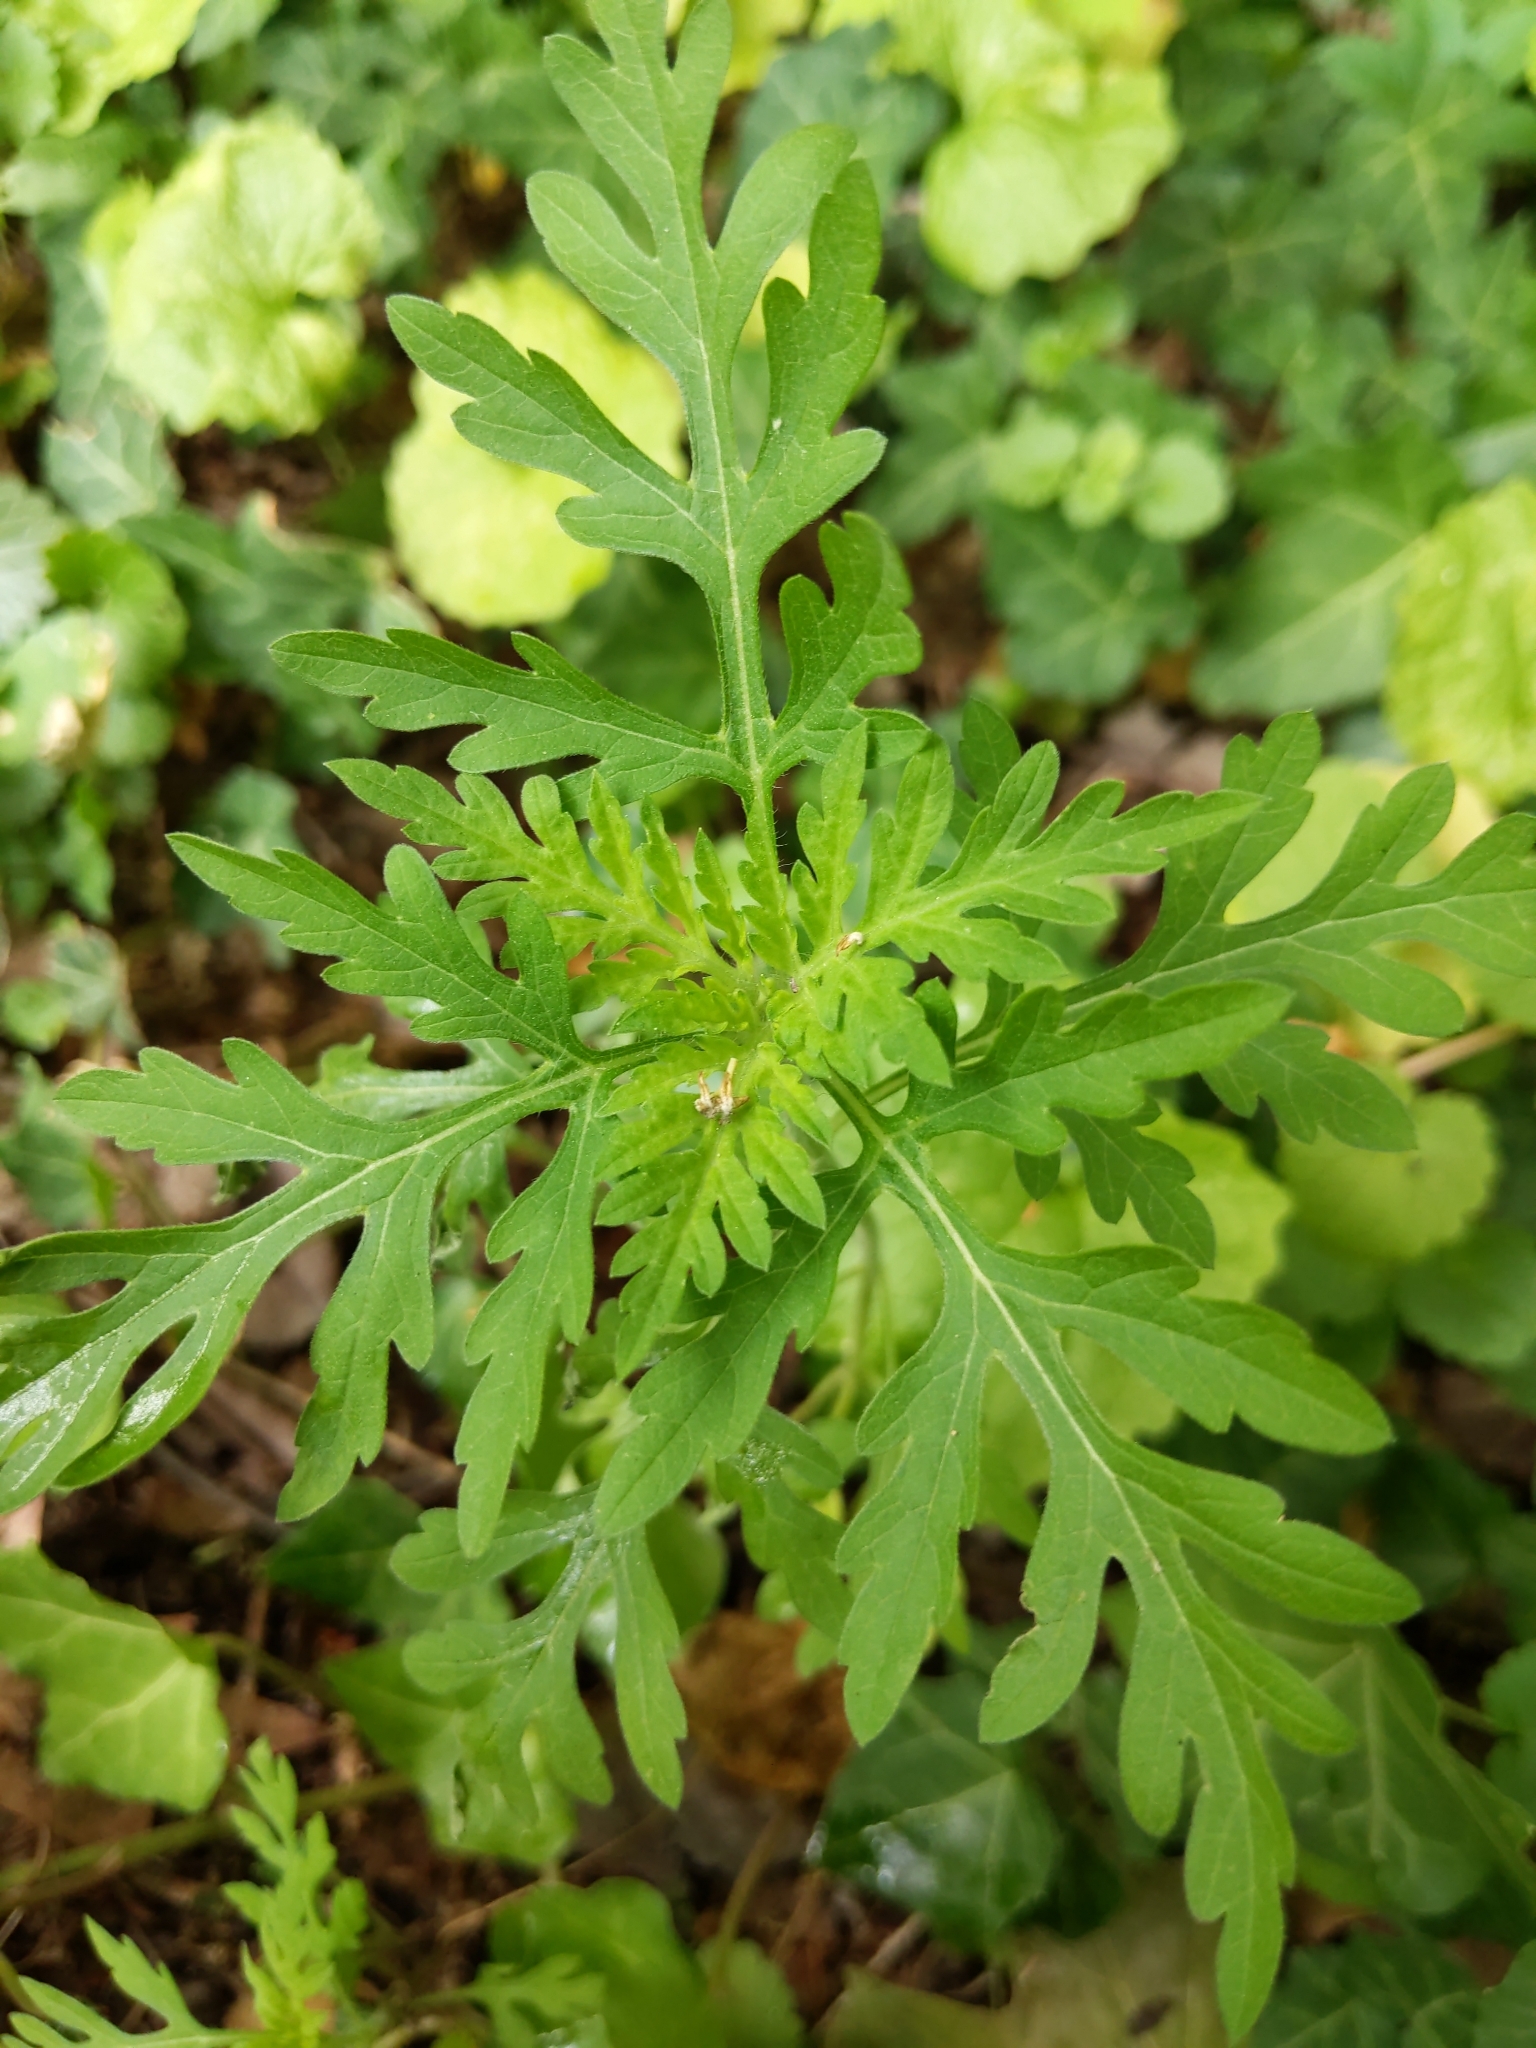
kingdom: Plantae
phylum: Tracheophyta
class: Magnoliopsida
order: Asterales
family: Asteraceae
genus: Ambrosia
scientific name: Ambrosia artemisiifolia
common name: Annual ragweed
